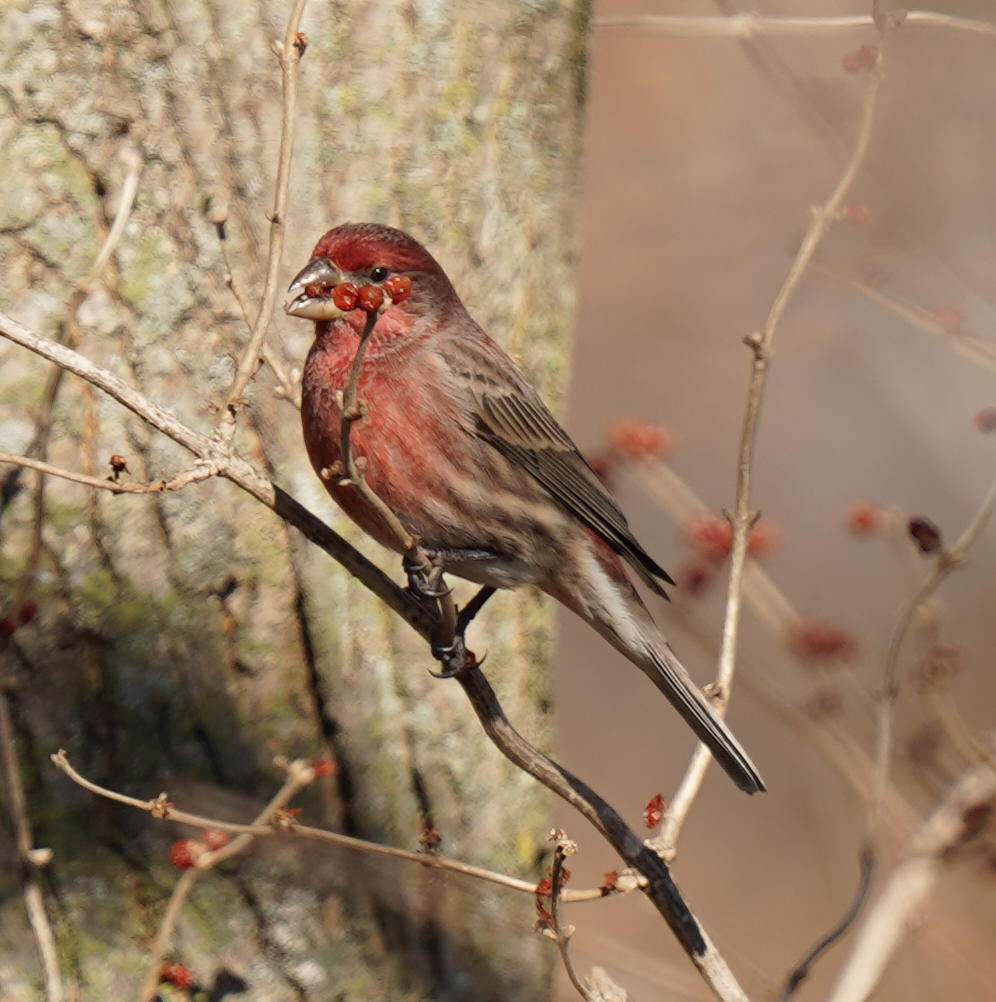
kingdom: Animalia
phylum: Chordata
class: Aves
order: Passeriformes
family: Fringillidae
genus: Haemorhous
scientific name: Haemorhous mexicanus
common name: House finch
